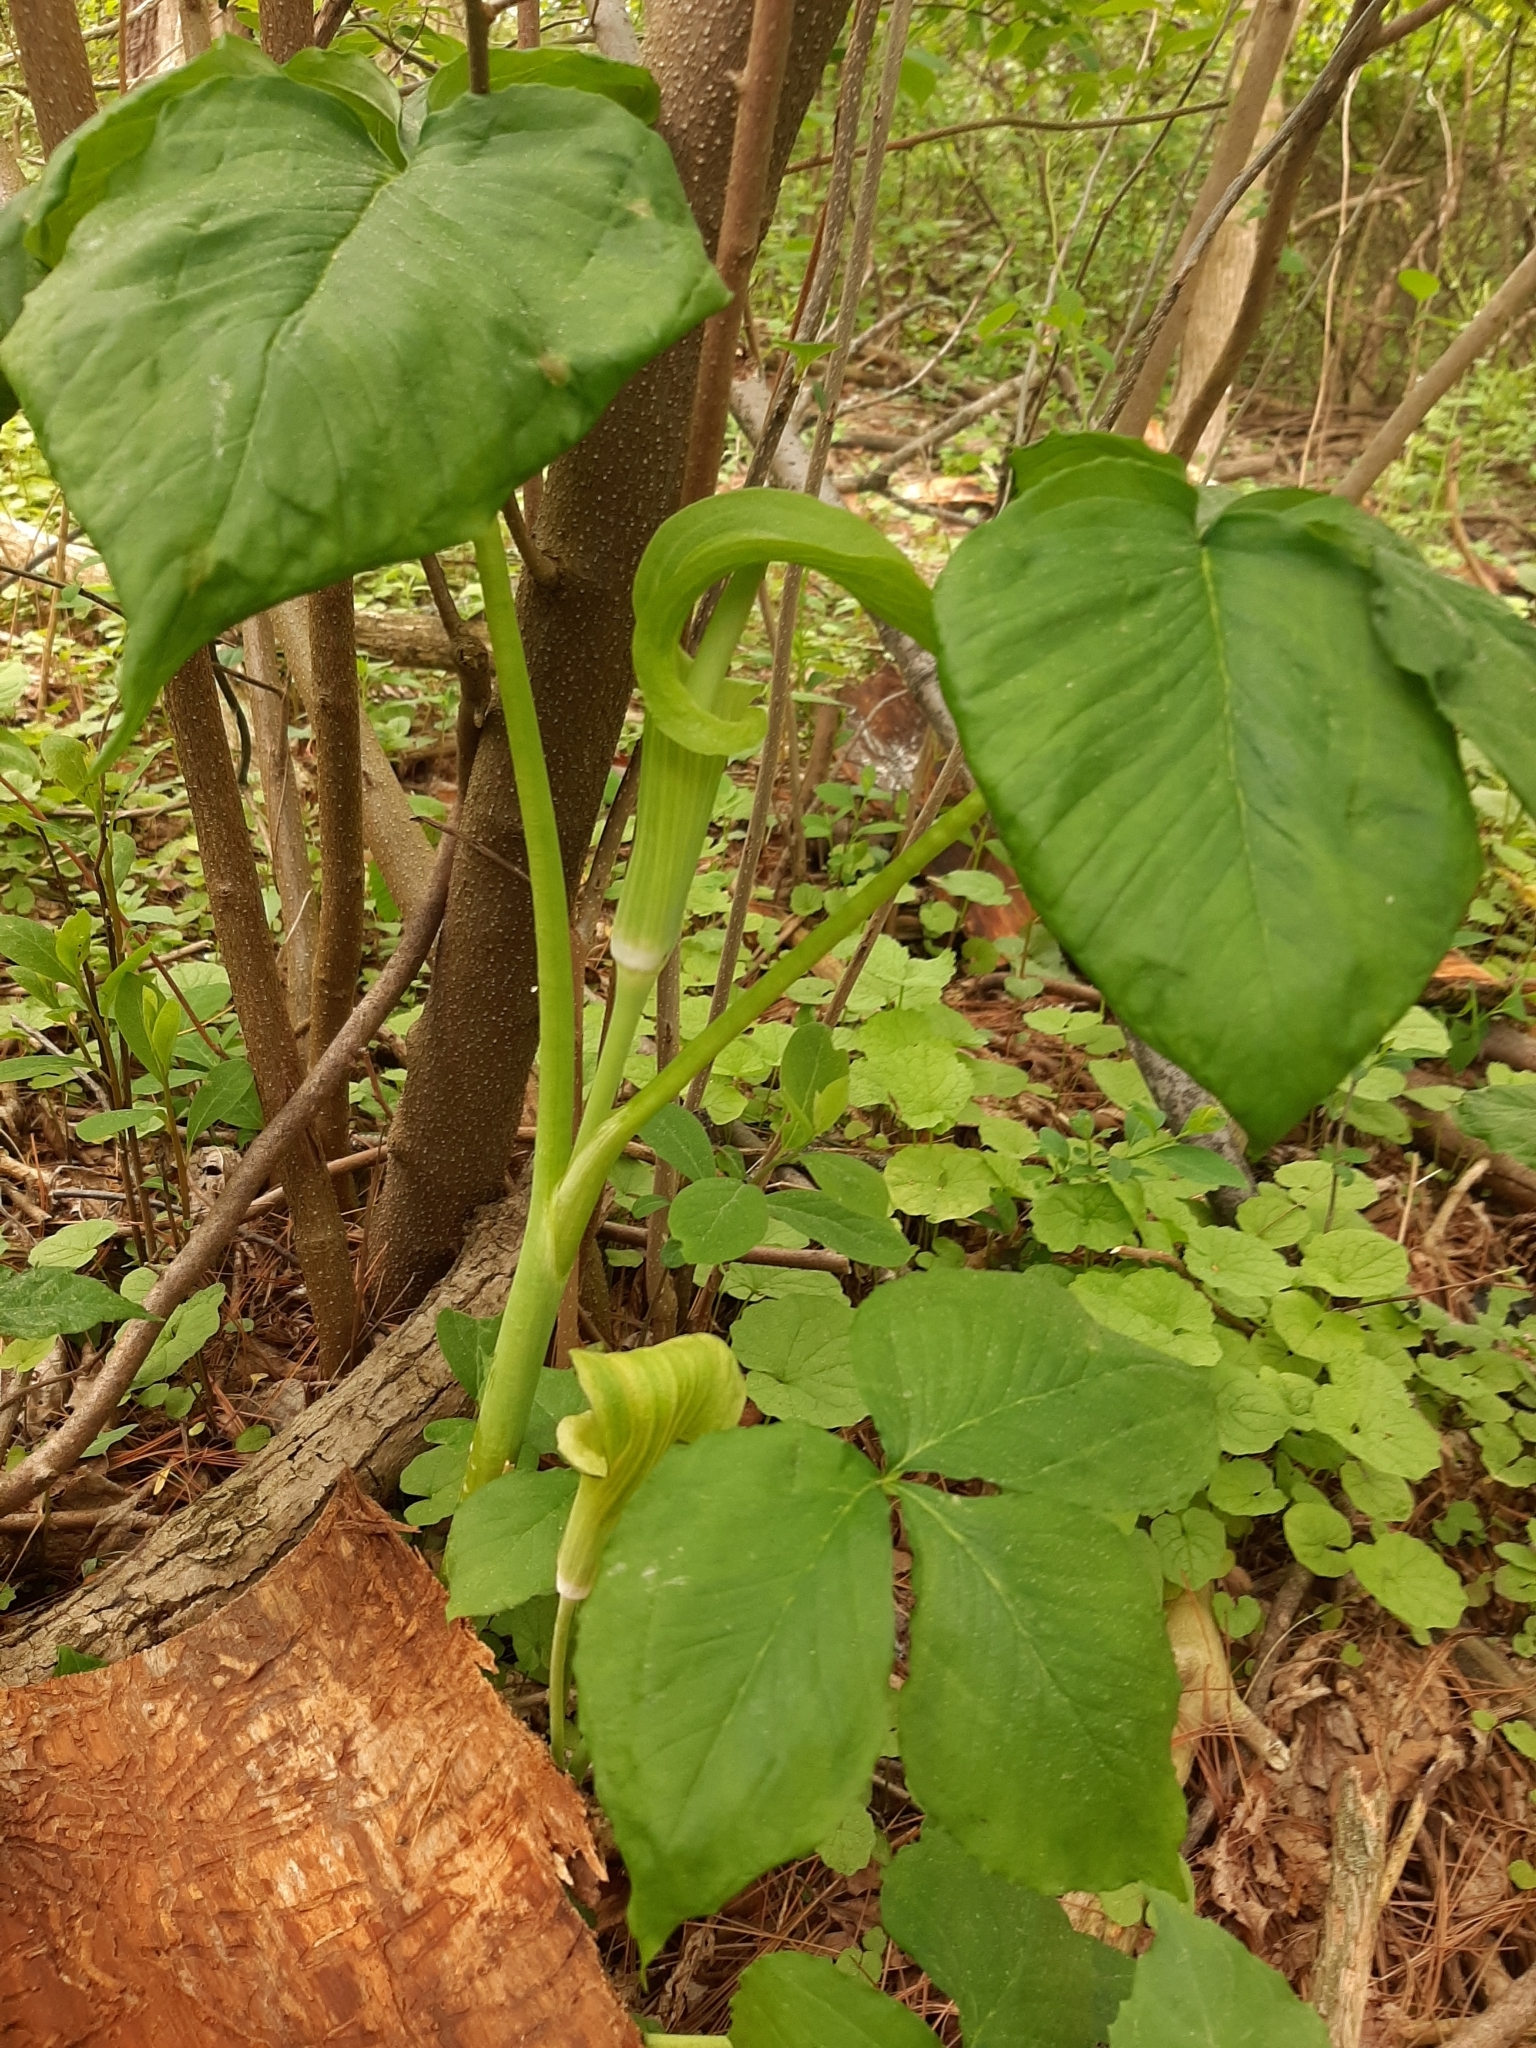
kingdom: Plantae
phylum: Tracheophyta
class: Liliopsida
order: Alismatales
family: Araceae
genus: Arisaema
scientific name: Arisaema triphyllum
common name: Jack-in-the-pulpit
